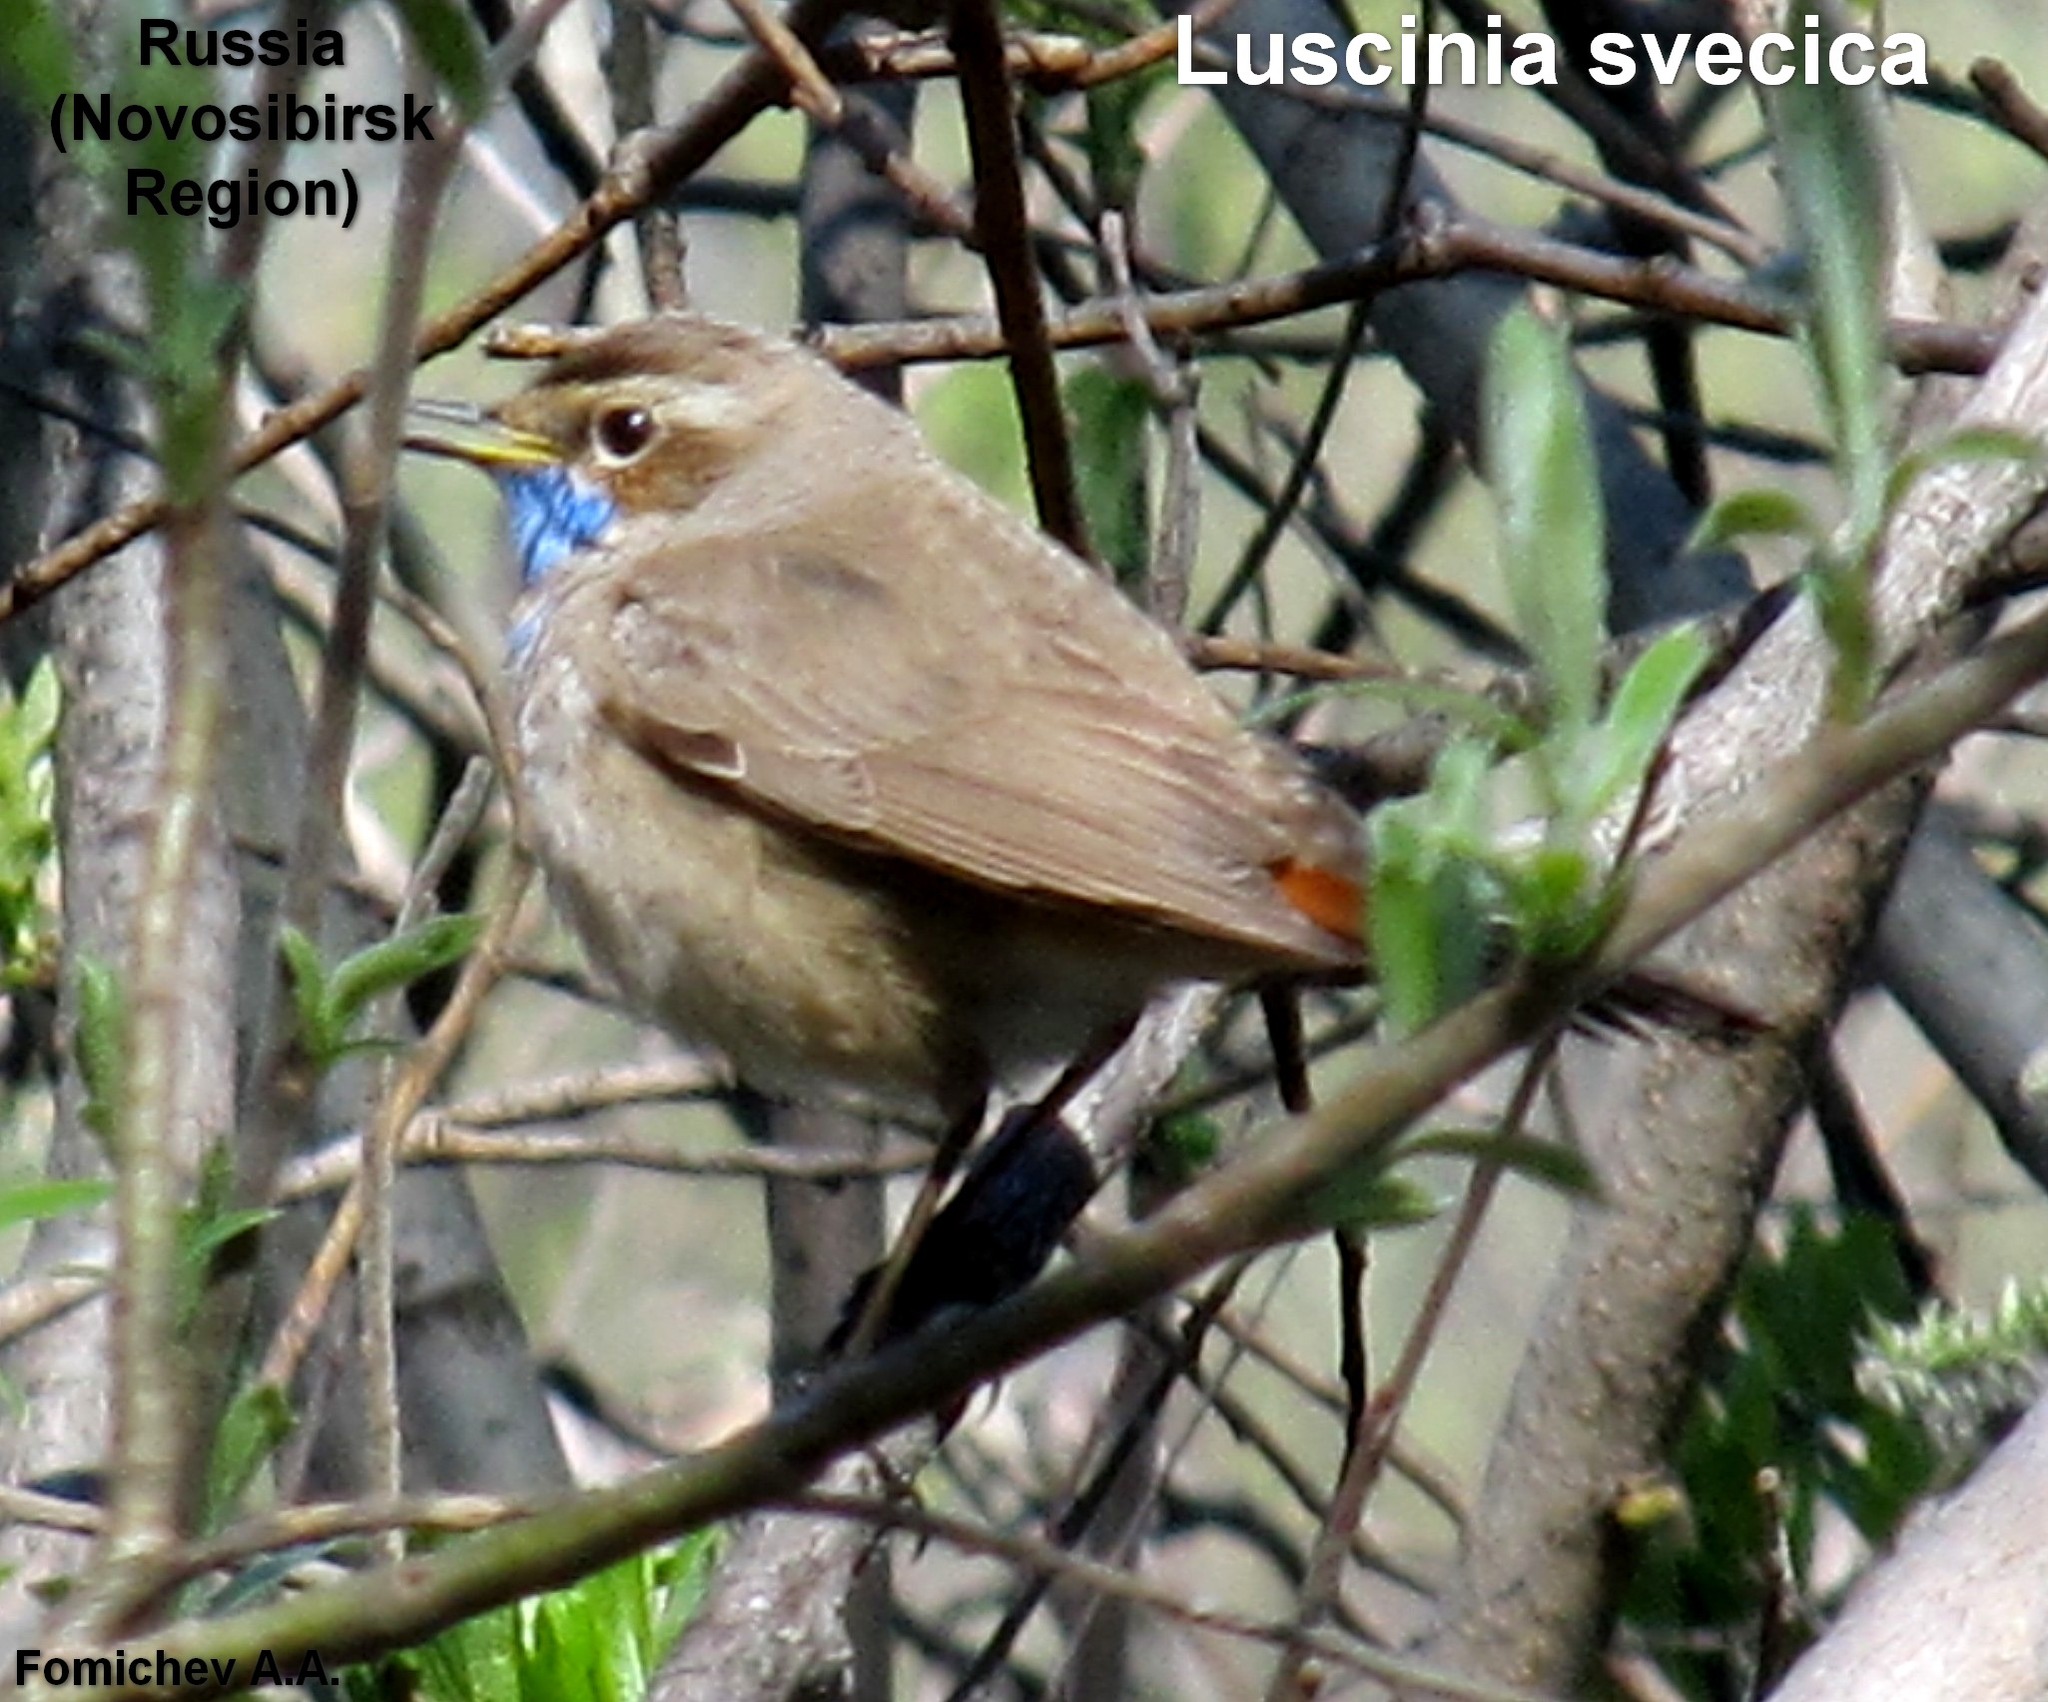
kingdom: Animalia
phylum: Chordata
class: Aves
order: Passeriformes
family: Muscicapidae
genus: Luscinia
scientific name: Luscinia svecica
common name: Bluethroat
